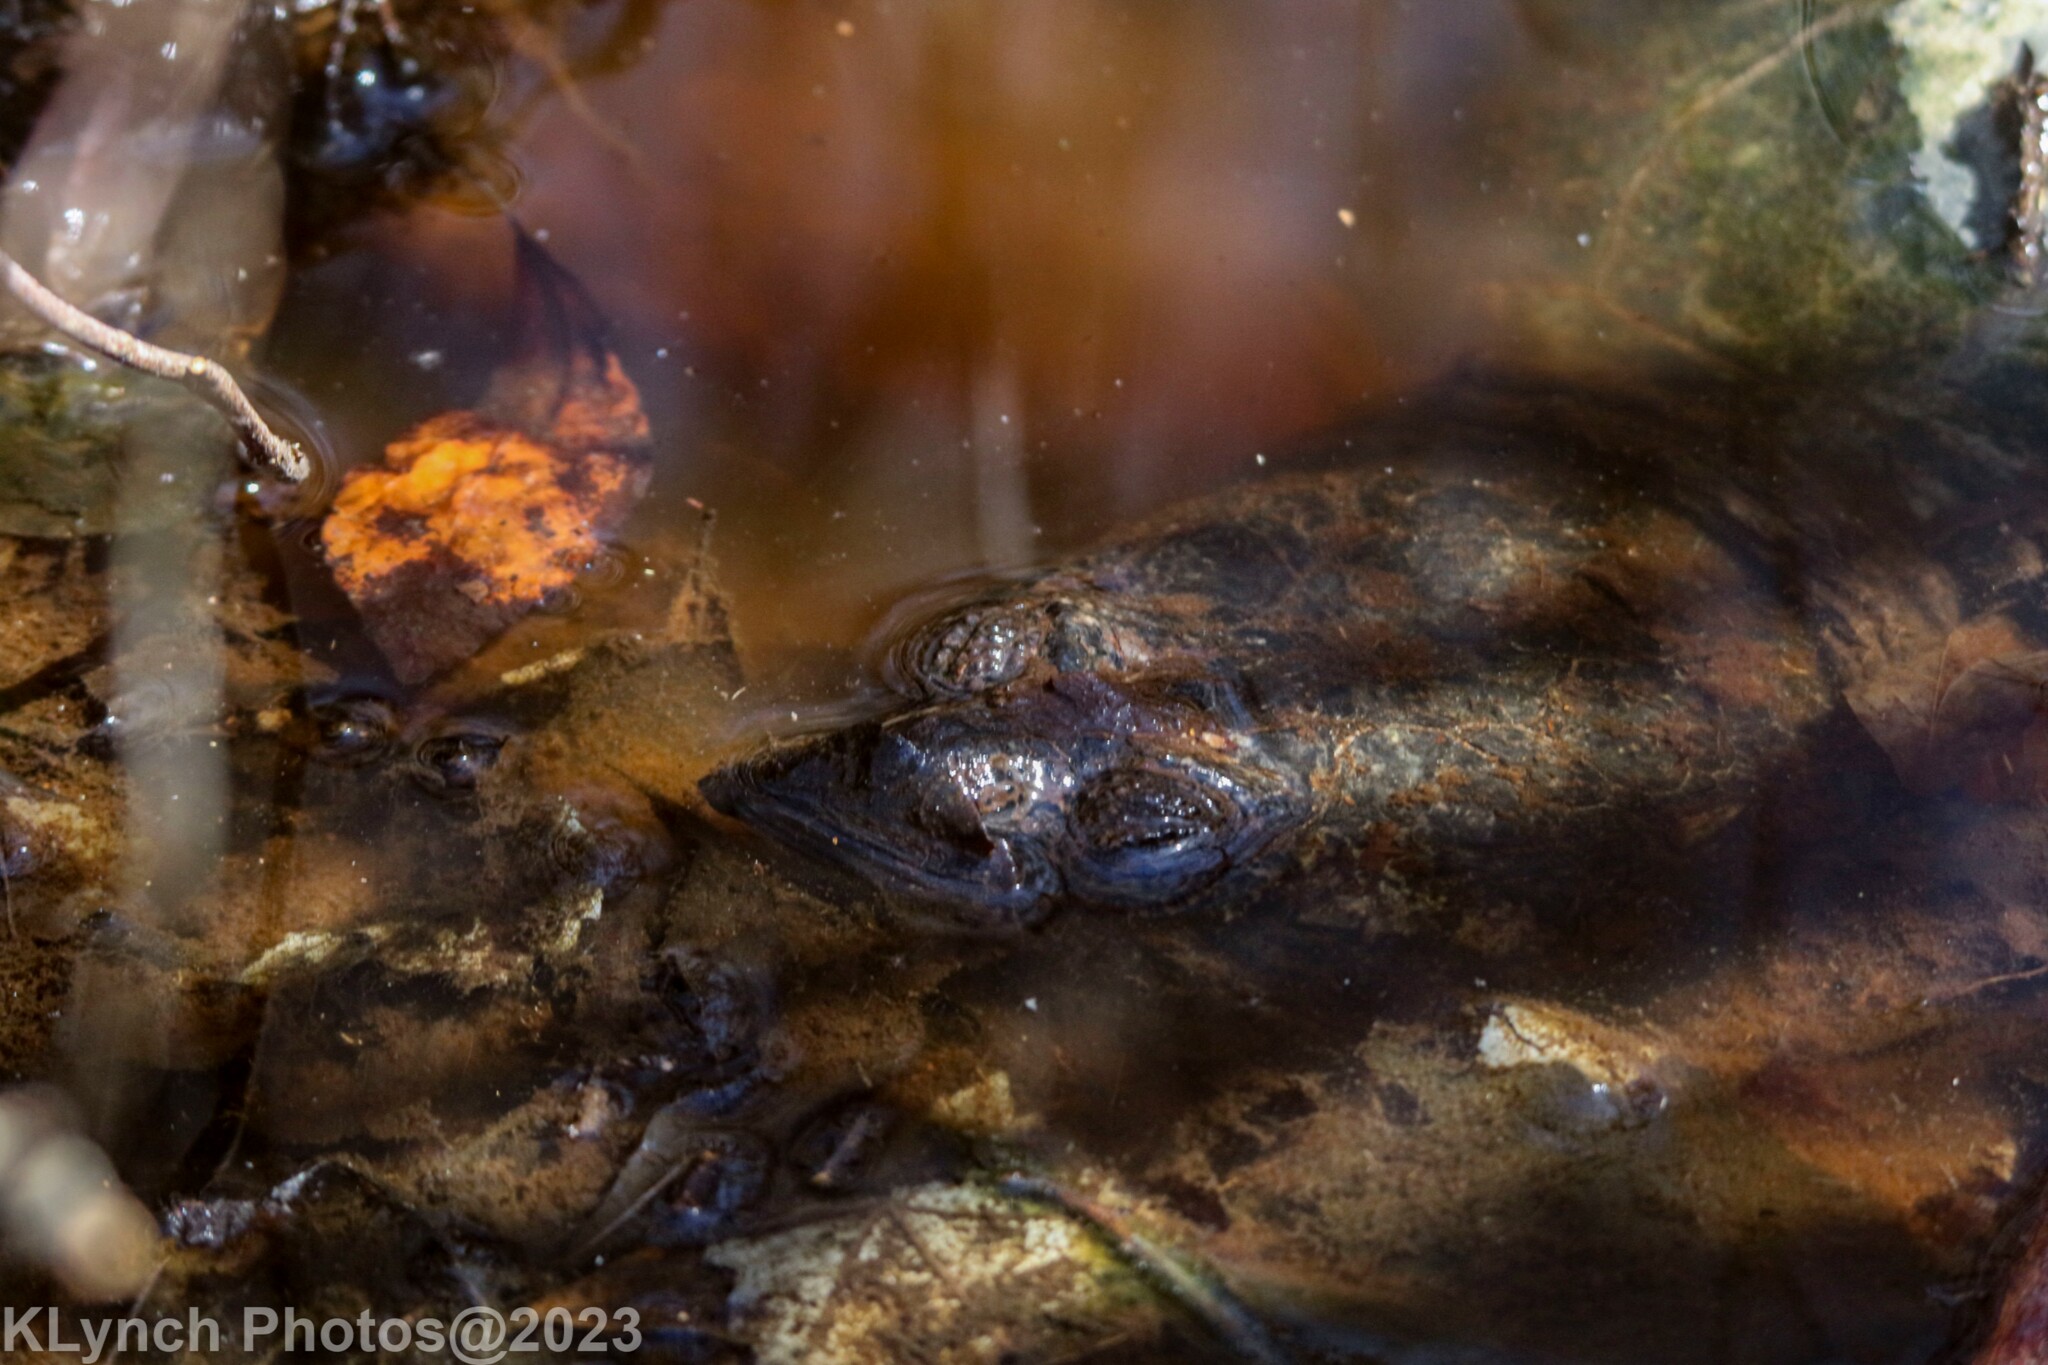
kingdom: Animalia
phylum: Chordata
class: Testudines
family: Chelydridae
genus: Chelydra
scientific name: Chelydra serpentina
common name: Common snapping turtle
